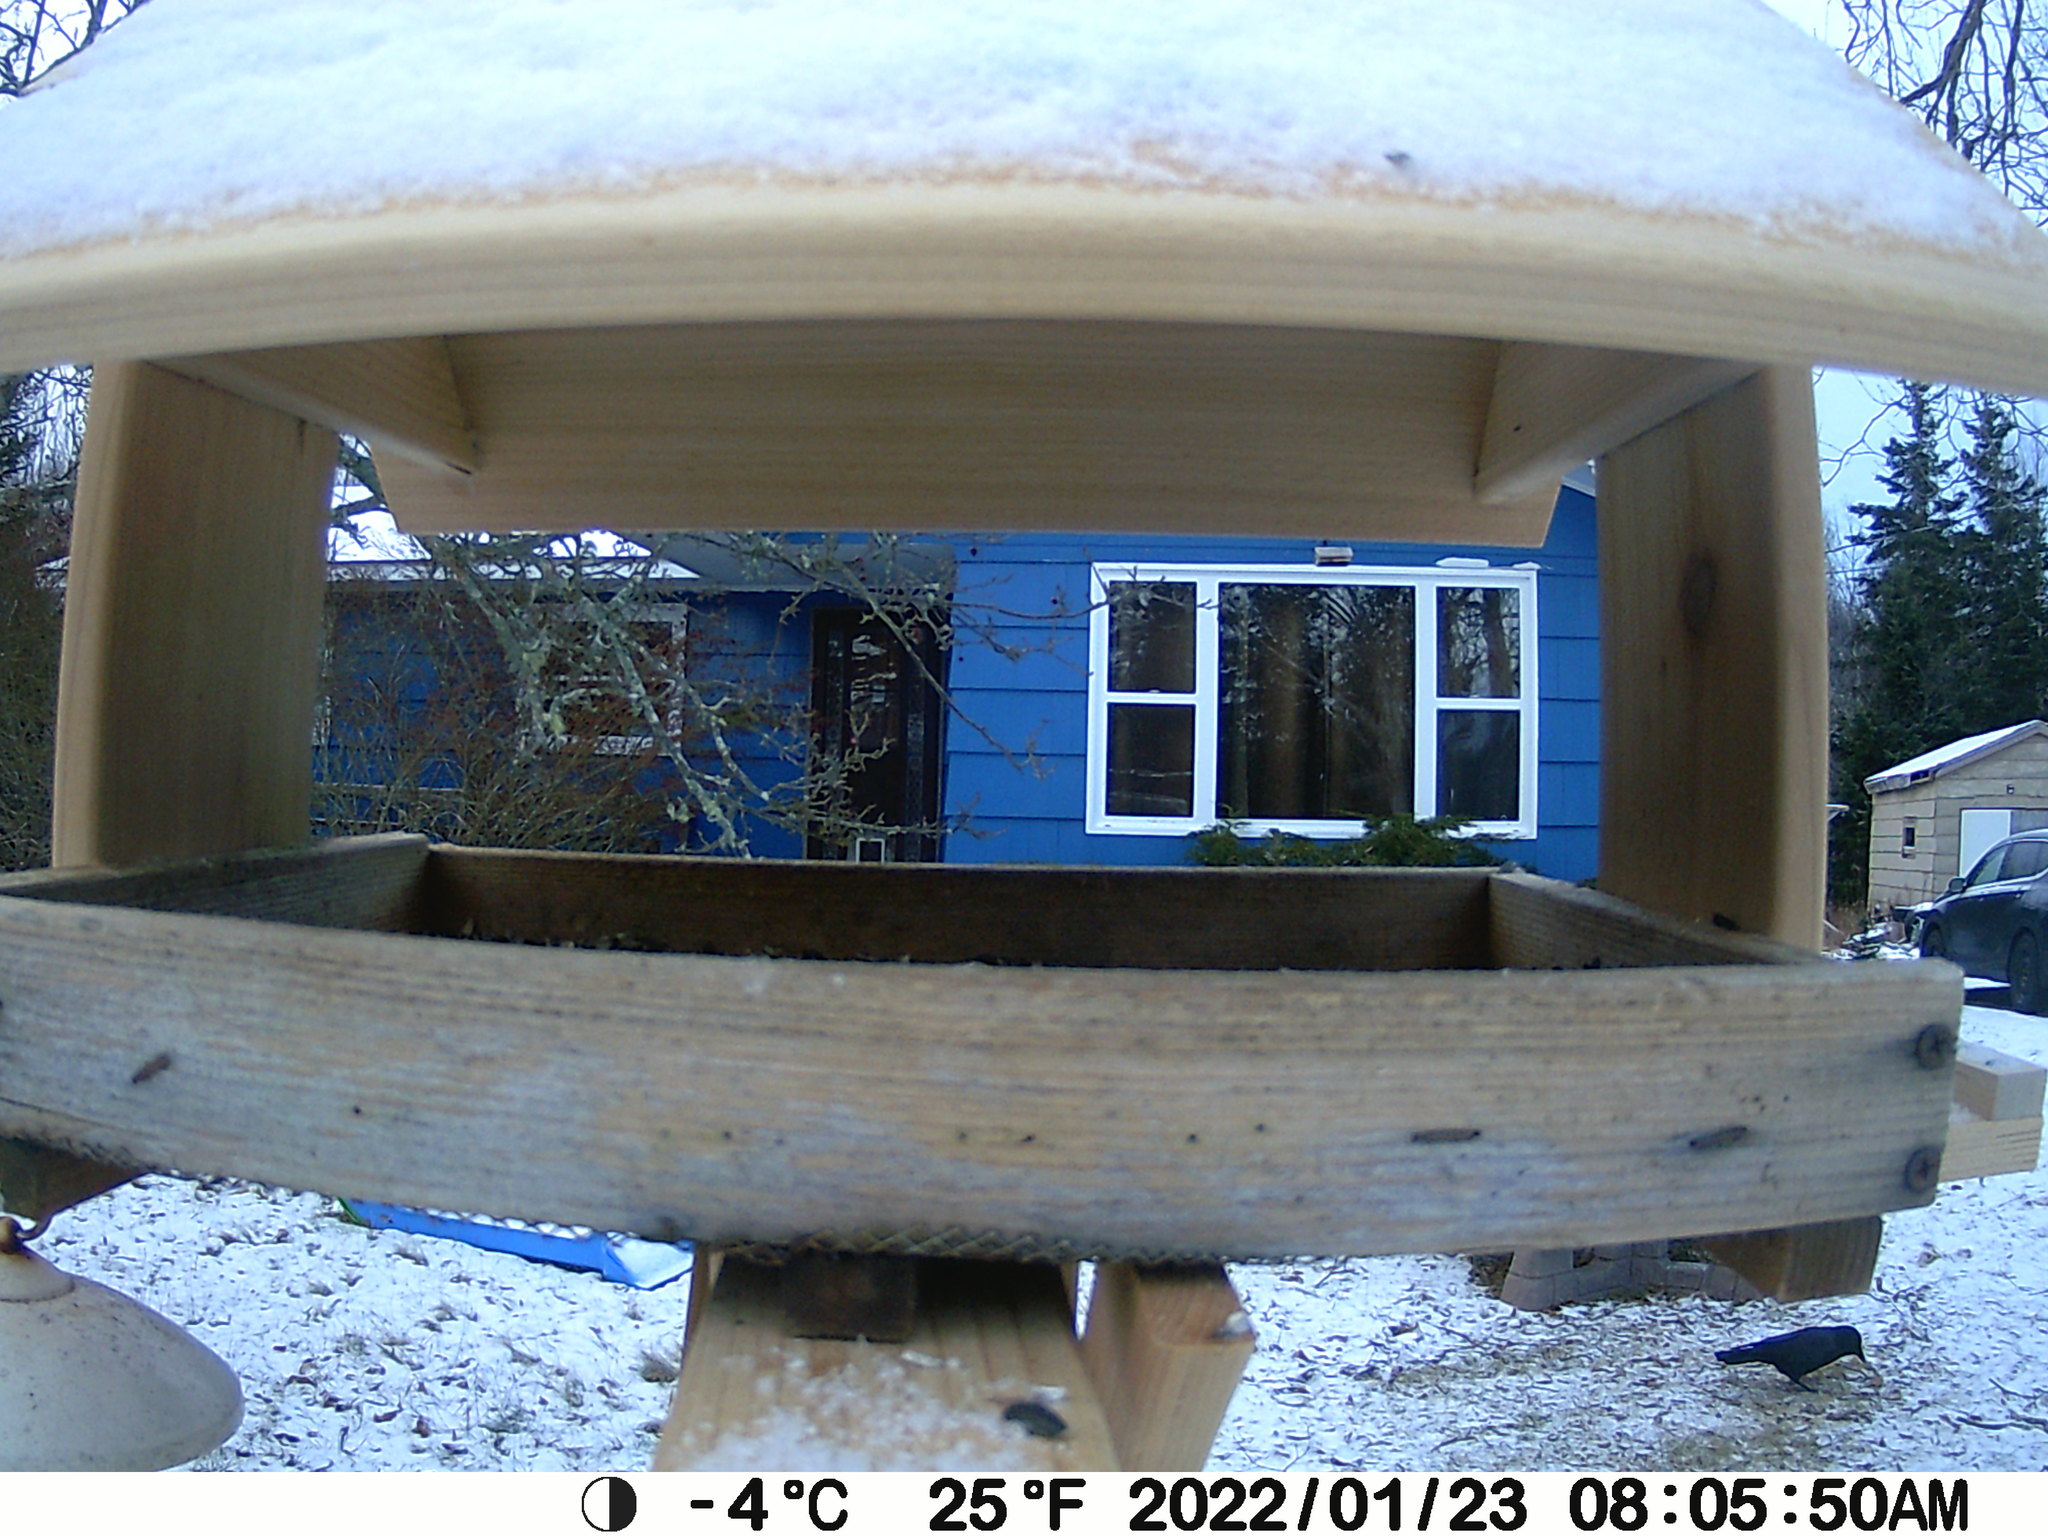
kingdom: Animalia
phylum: Chordata
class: Aves
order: Passeriformes
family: Corvidae
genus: Corvus
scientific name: Corvus brachyrhynchos
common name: American crow
